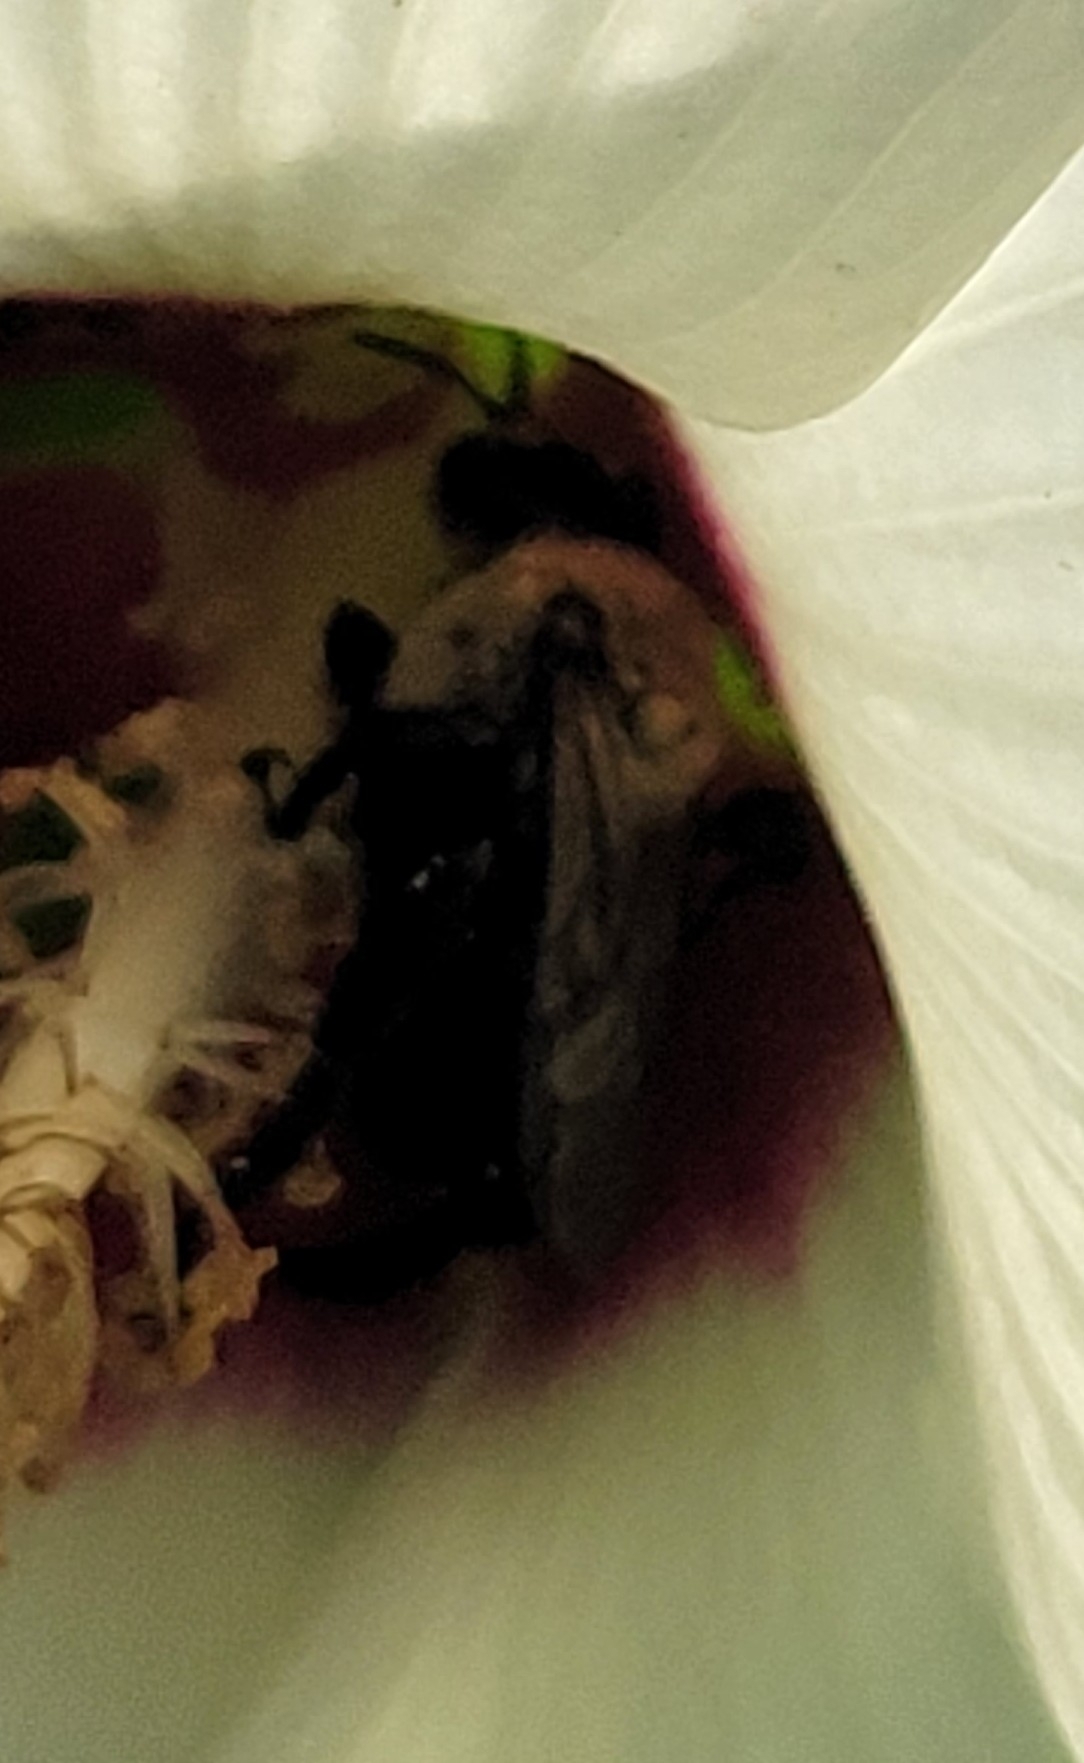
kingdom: Animalia
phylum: Arthropoda
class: Insecta
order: Hymenoptera
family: Apidae
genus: Ptilothrix
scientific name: Ptilothrix bombiformis
